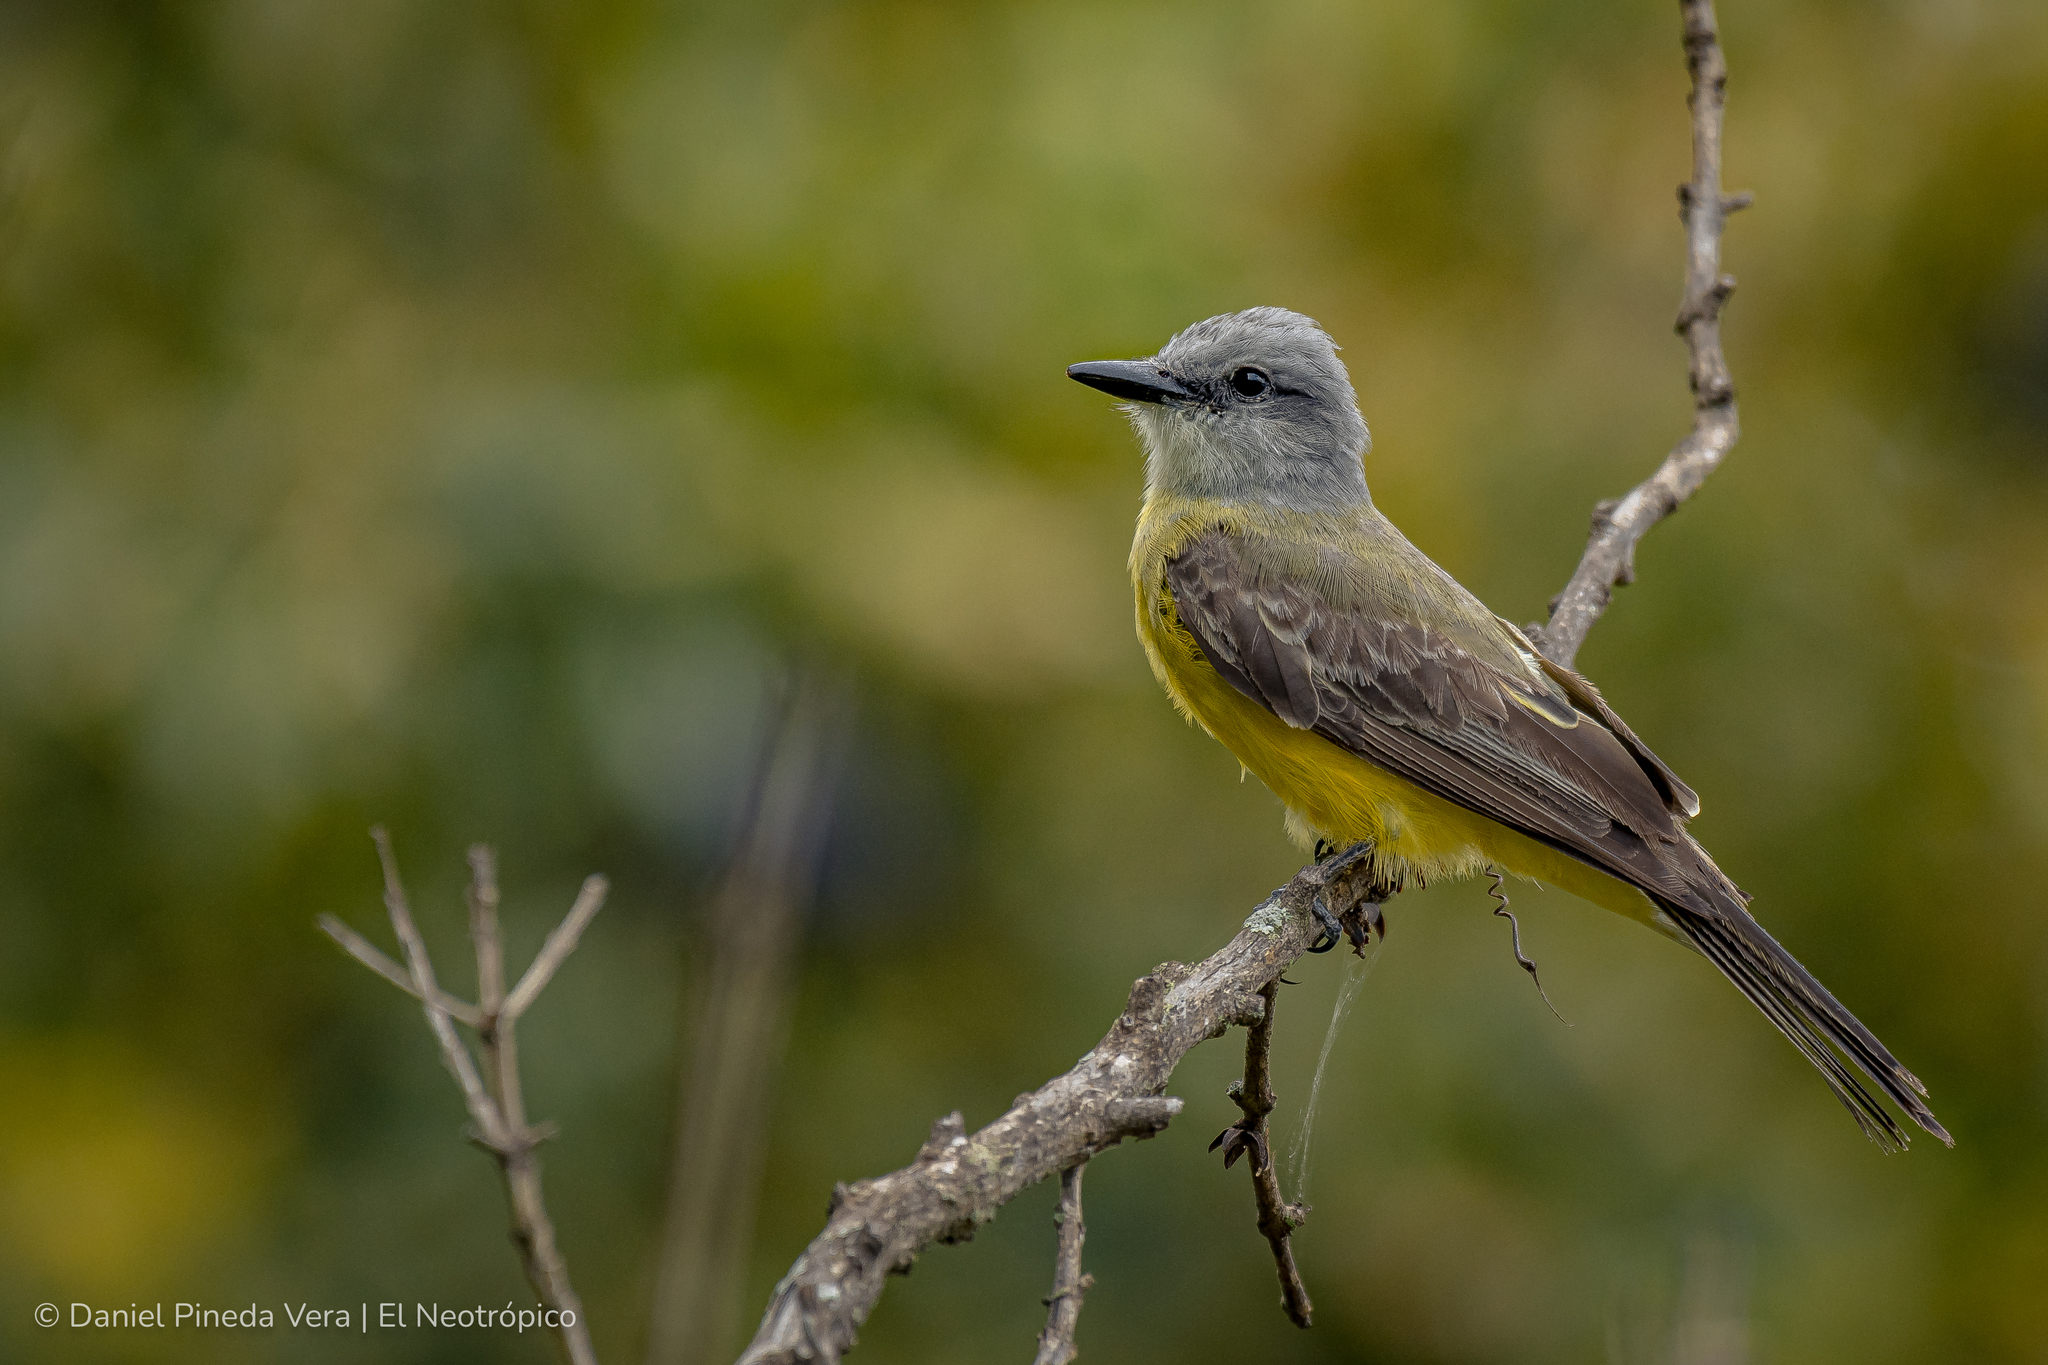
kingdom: Animalia
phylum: Chordata
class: Aves
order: Passeriformes
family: Tyrannidae
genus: Tyrannus
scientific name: Tyrannus melancholicus
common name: Tropical kingbird
